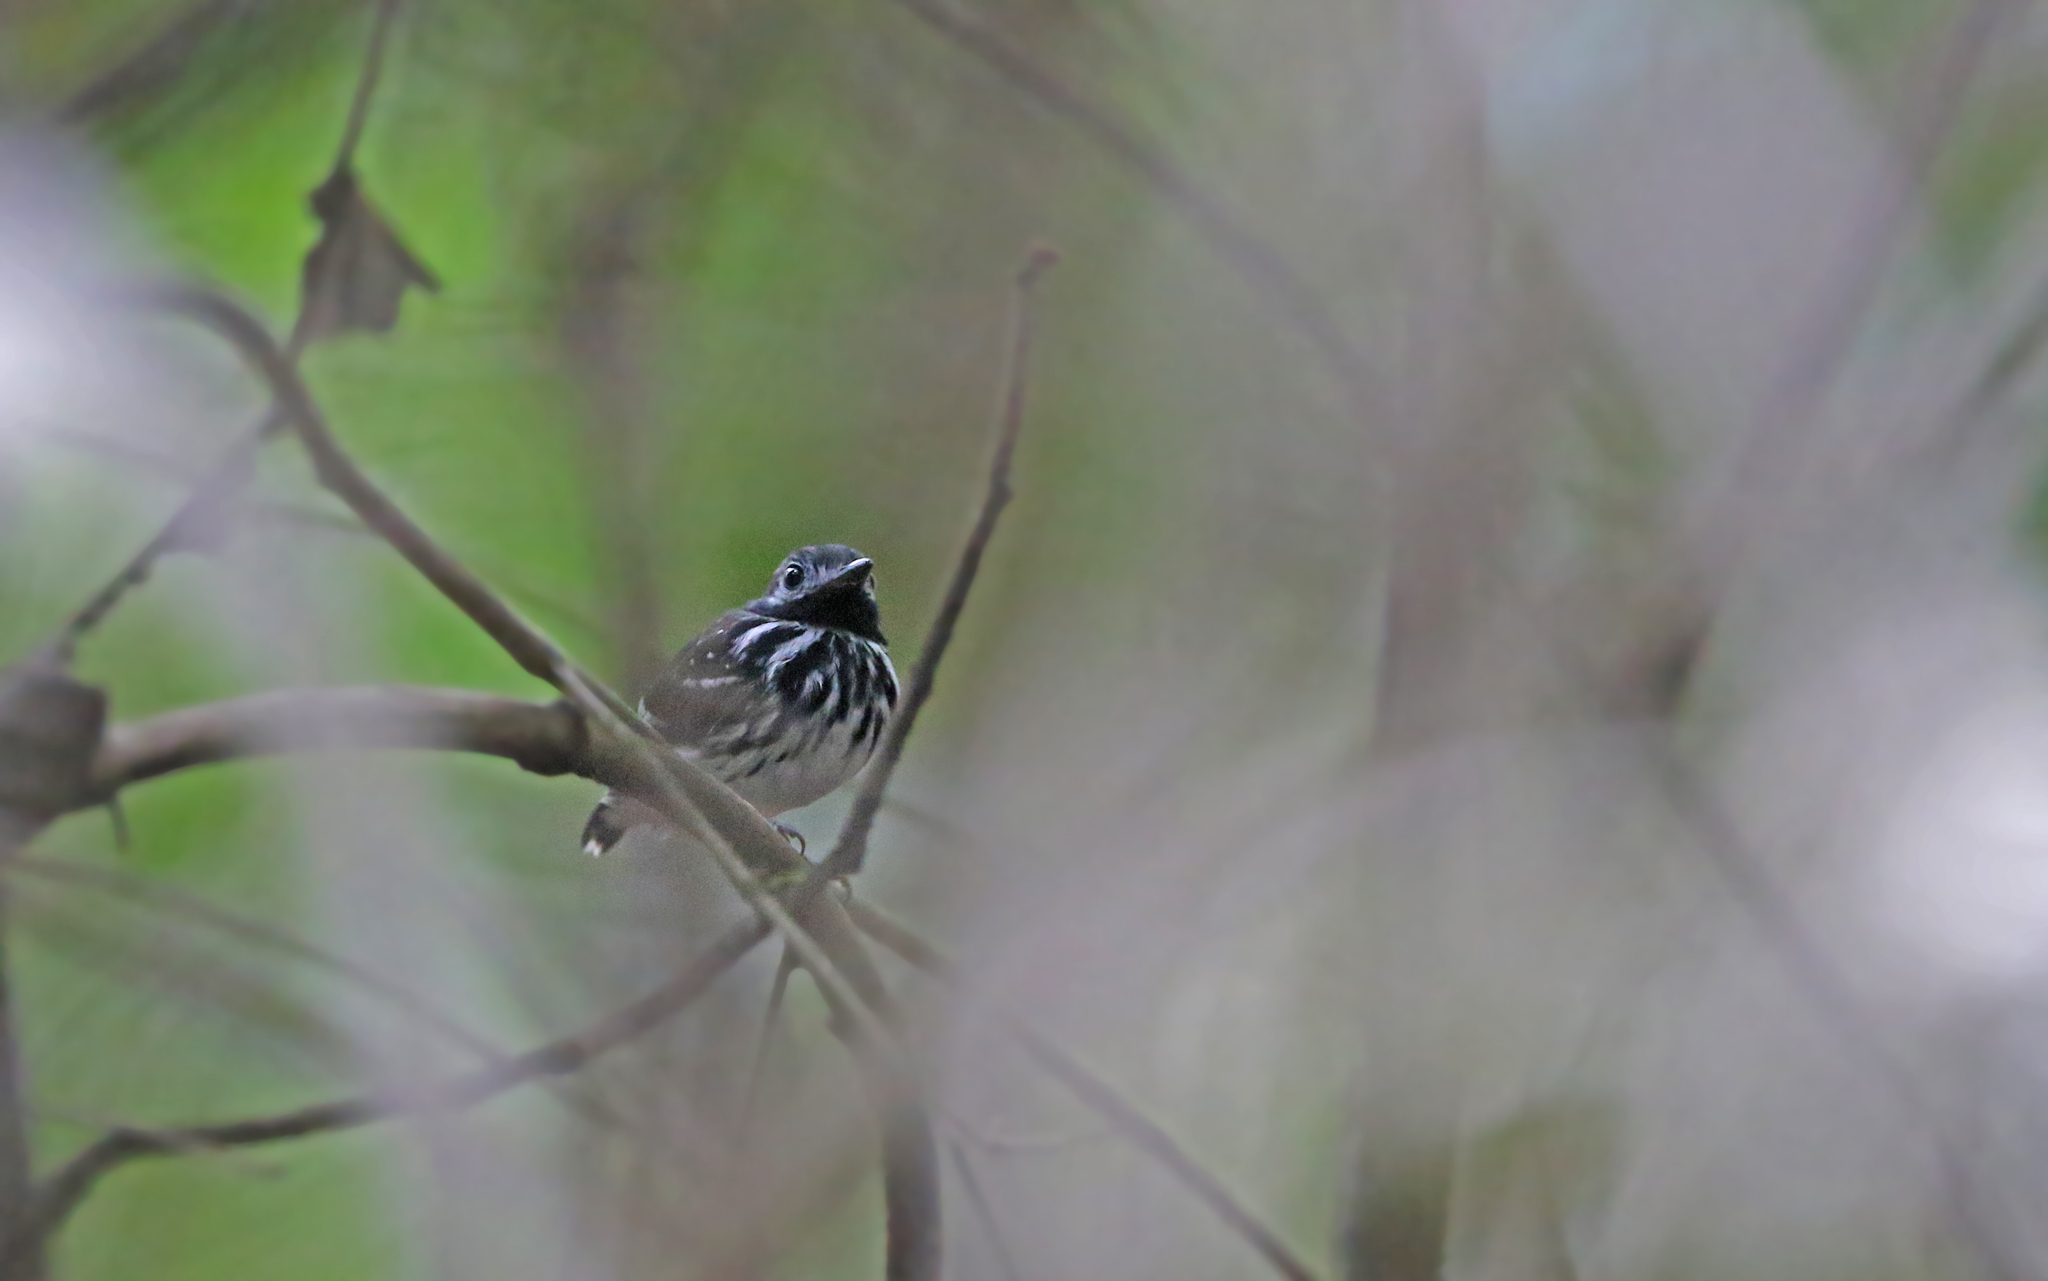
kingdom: Animalia
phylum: Chordata
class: Aves
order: Passeriformes
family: Thamnophilidae
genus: Hylophylax
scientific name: Hylophylax punctulatus
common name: Dot-backed antbird
